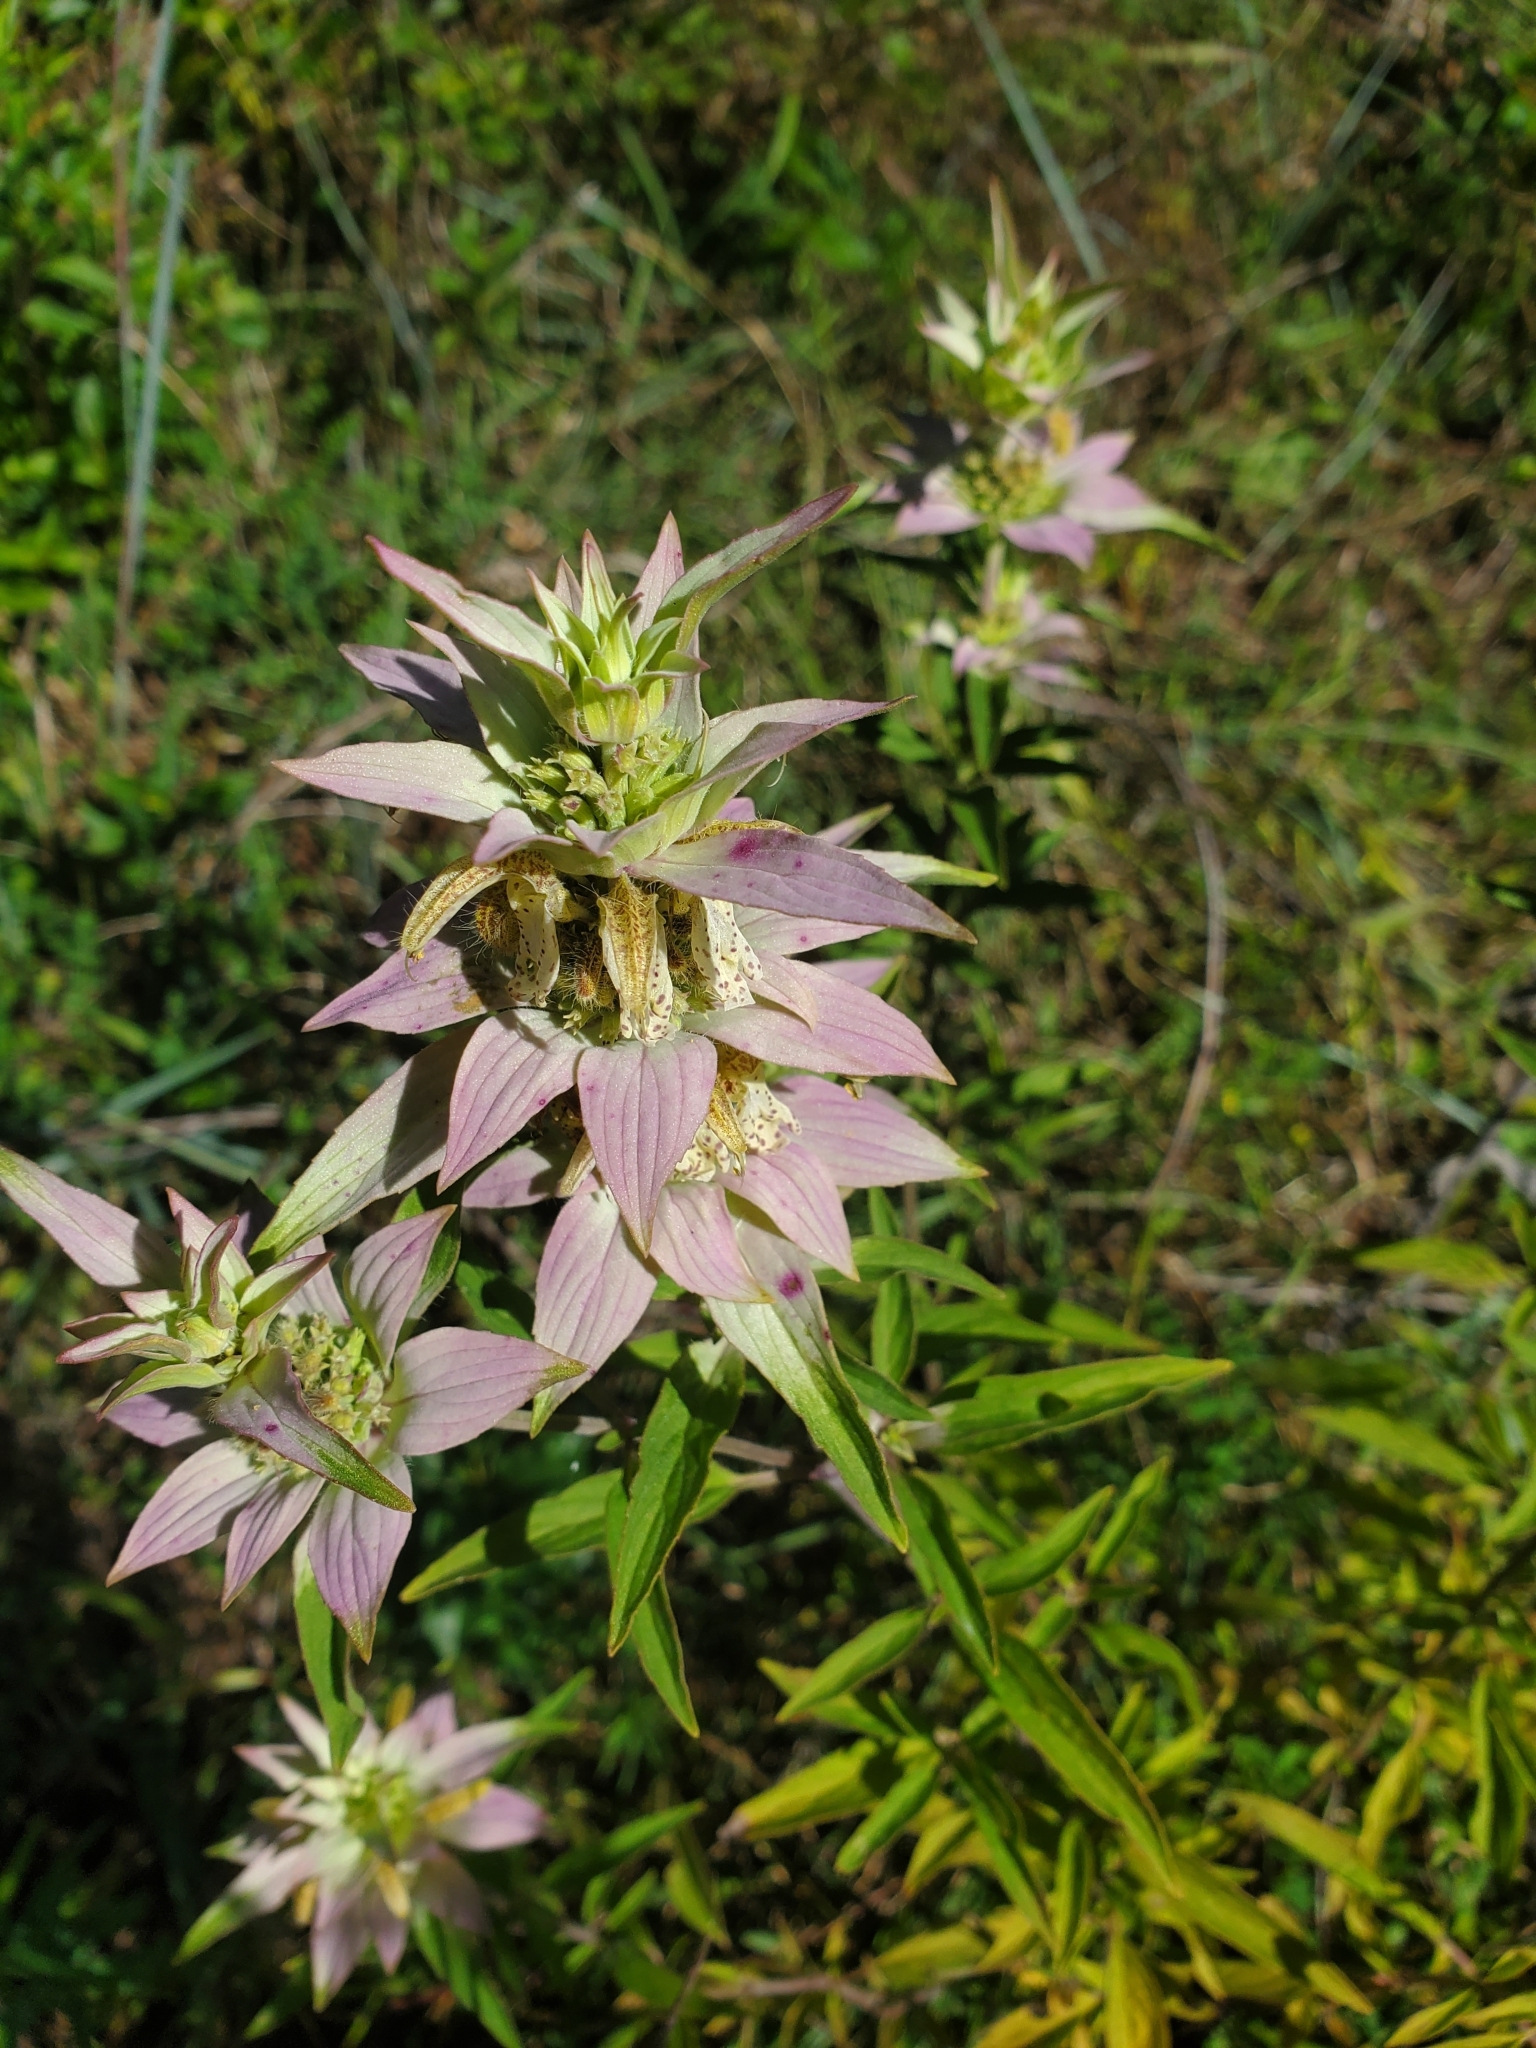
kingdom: Plantae
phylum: Tracheophyta
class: Magnoliopsida
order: Lamiales
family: Lamiaceae
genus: Monarda
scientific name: Monarda punctata
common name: Dotted monarda
